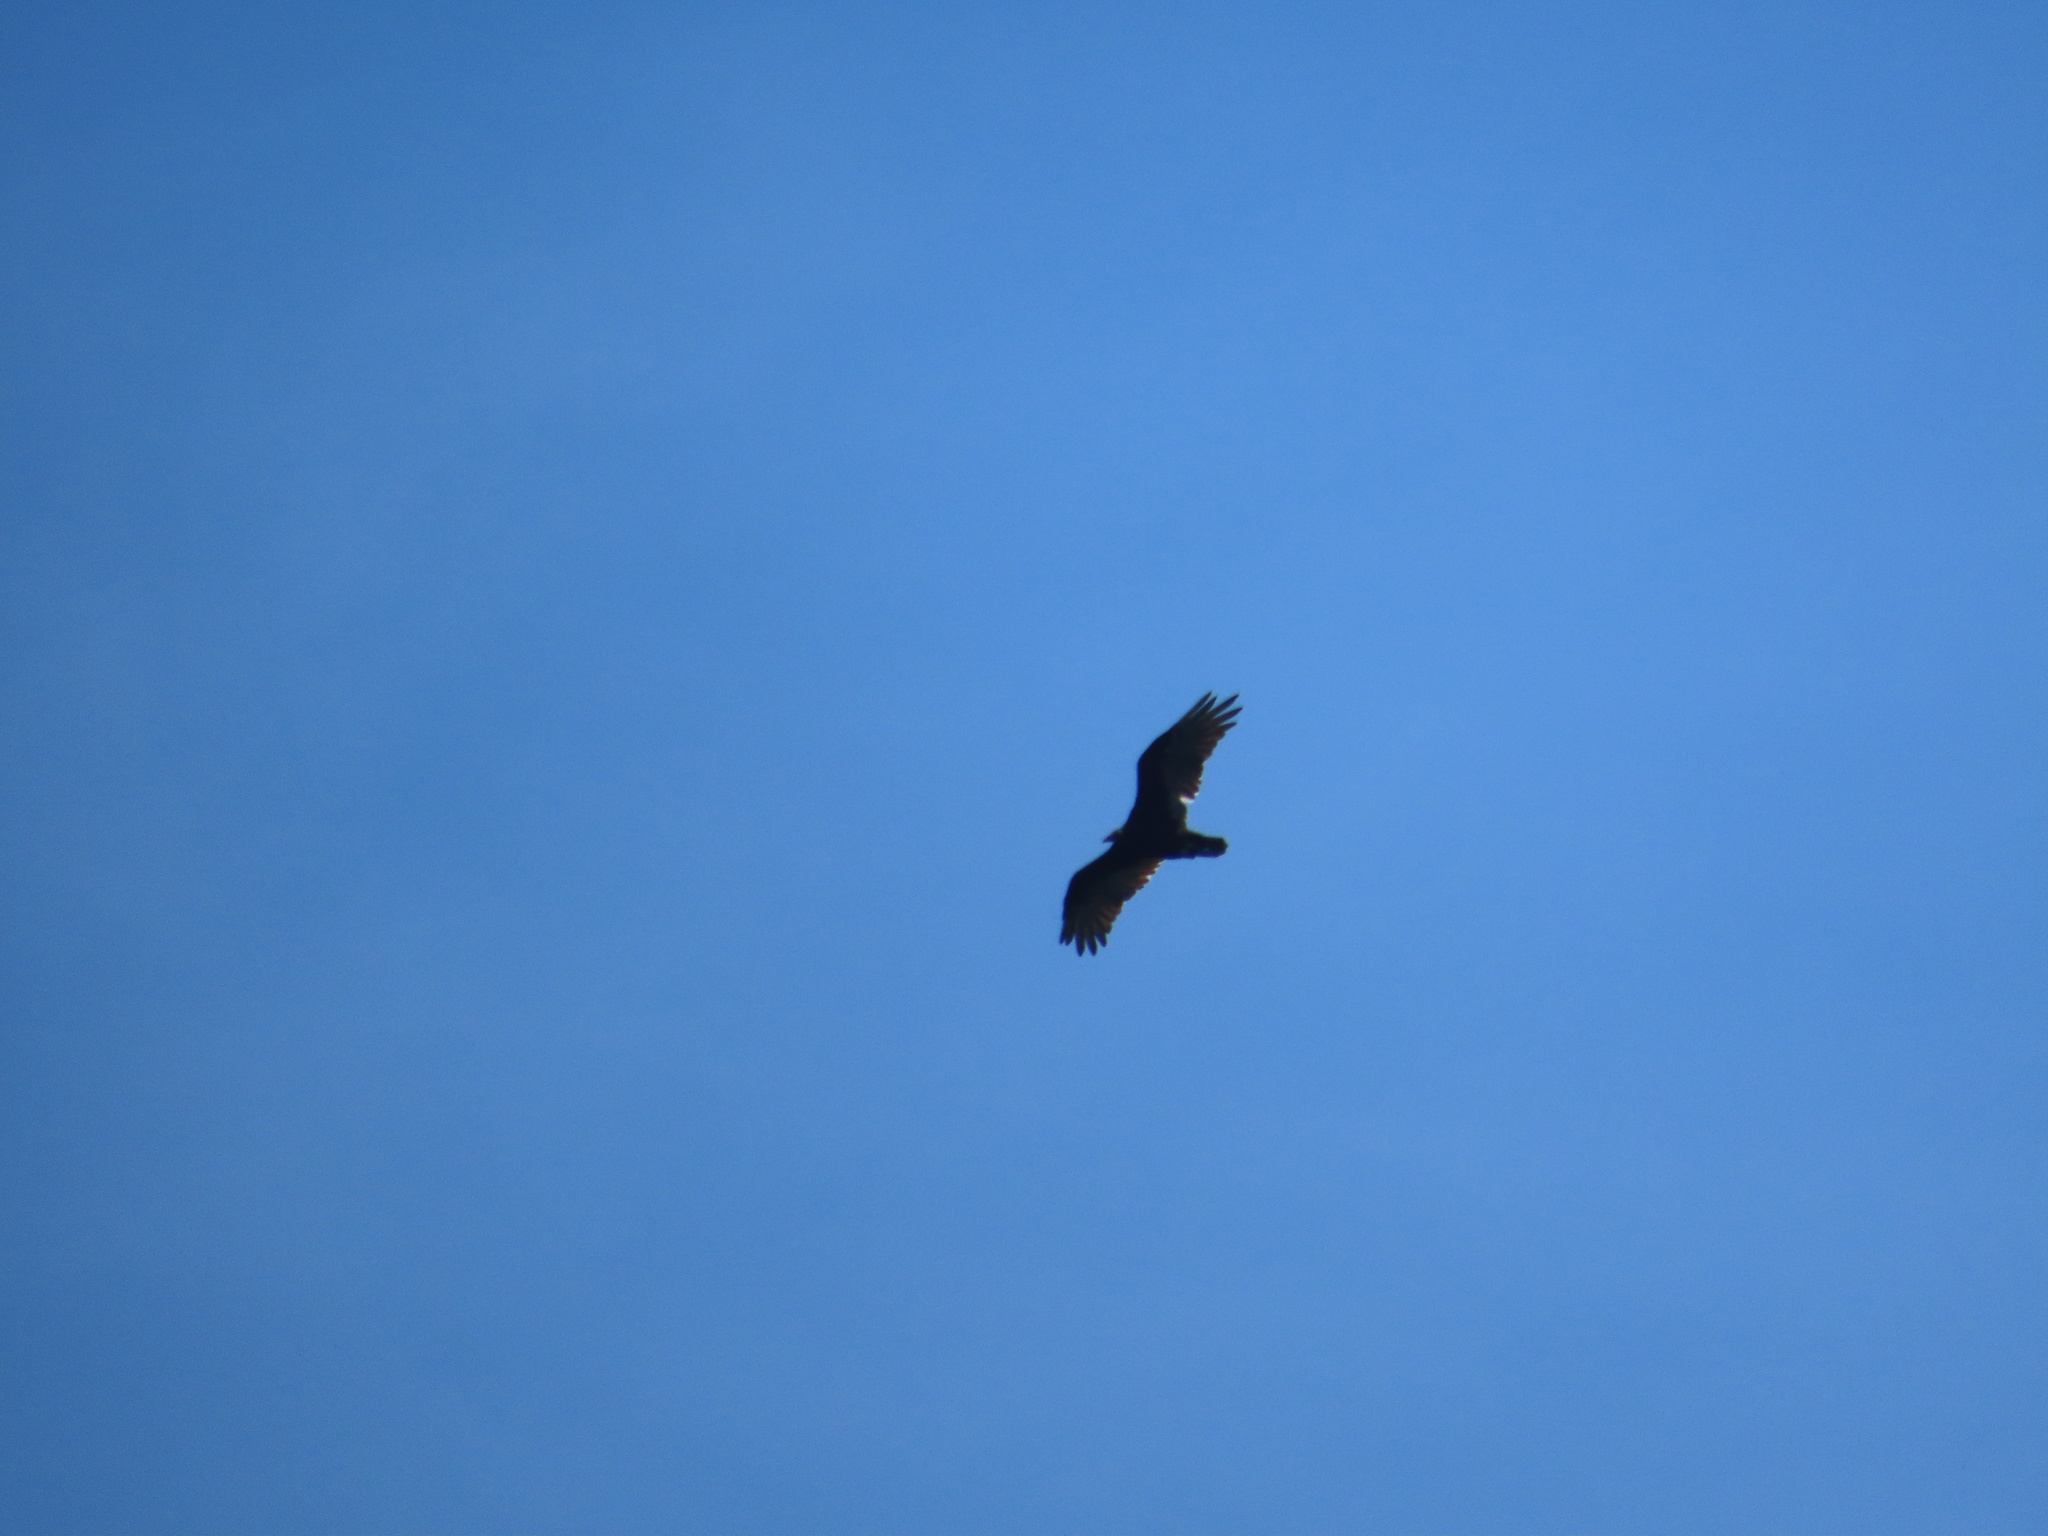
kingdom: Animalia
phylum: Chordata
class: Aves
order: Accipitriformes
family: Cathartidae
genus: Cathartes
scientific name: Cathartes aura
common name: Turkey vulture
